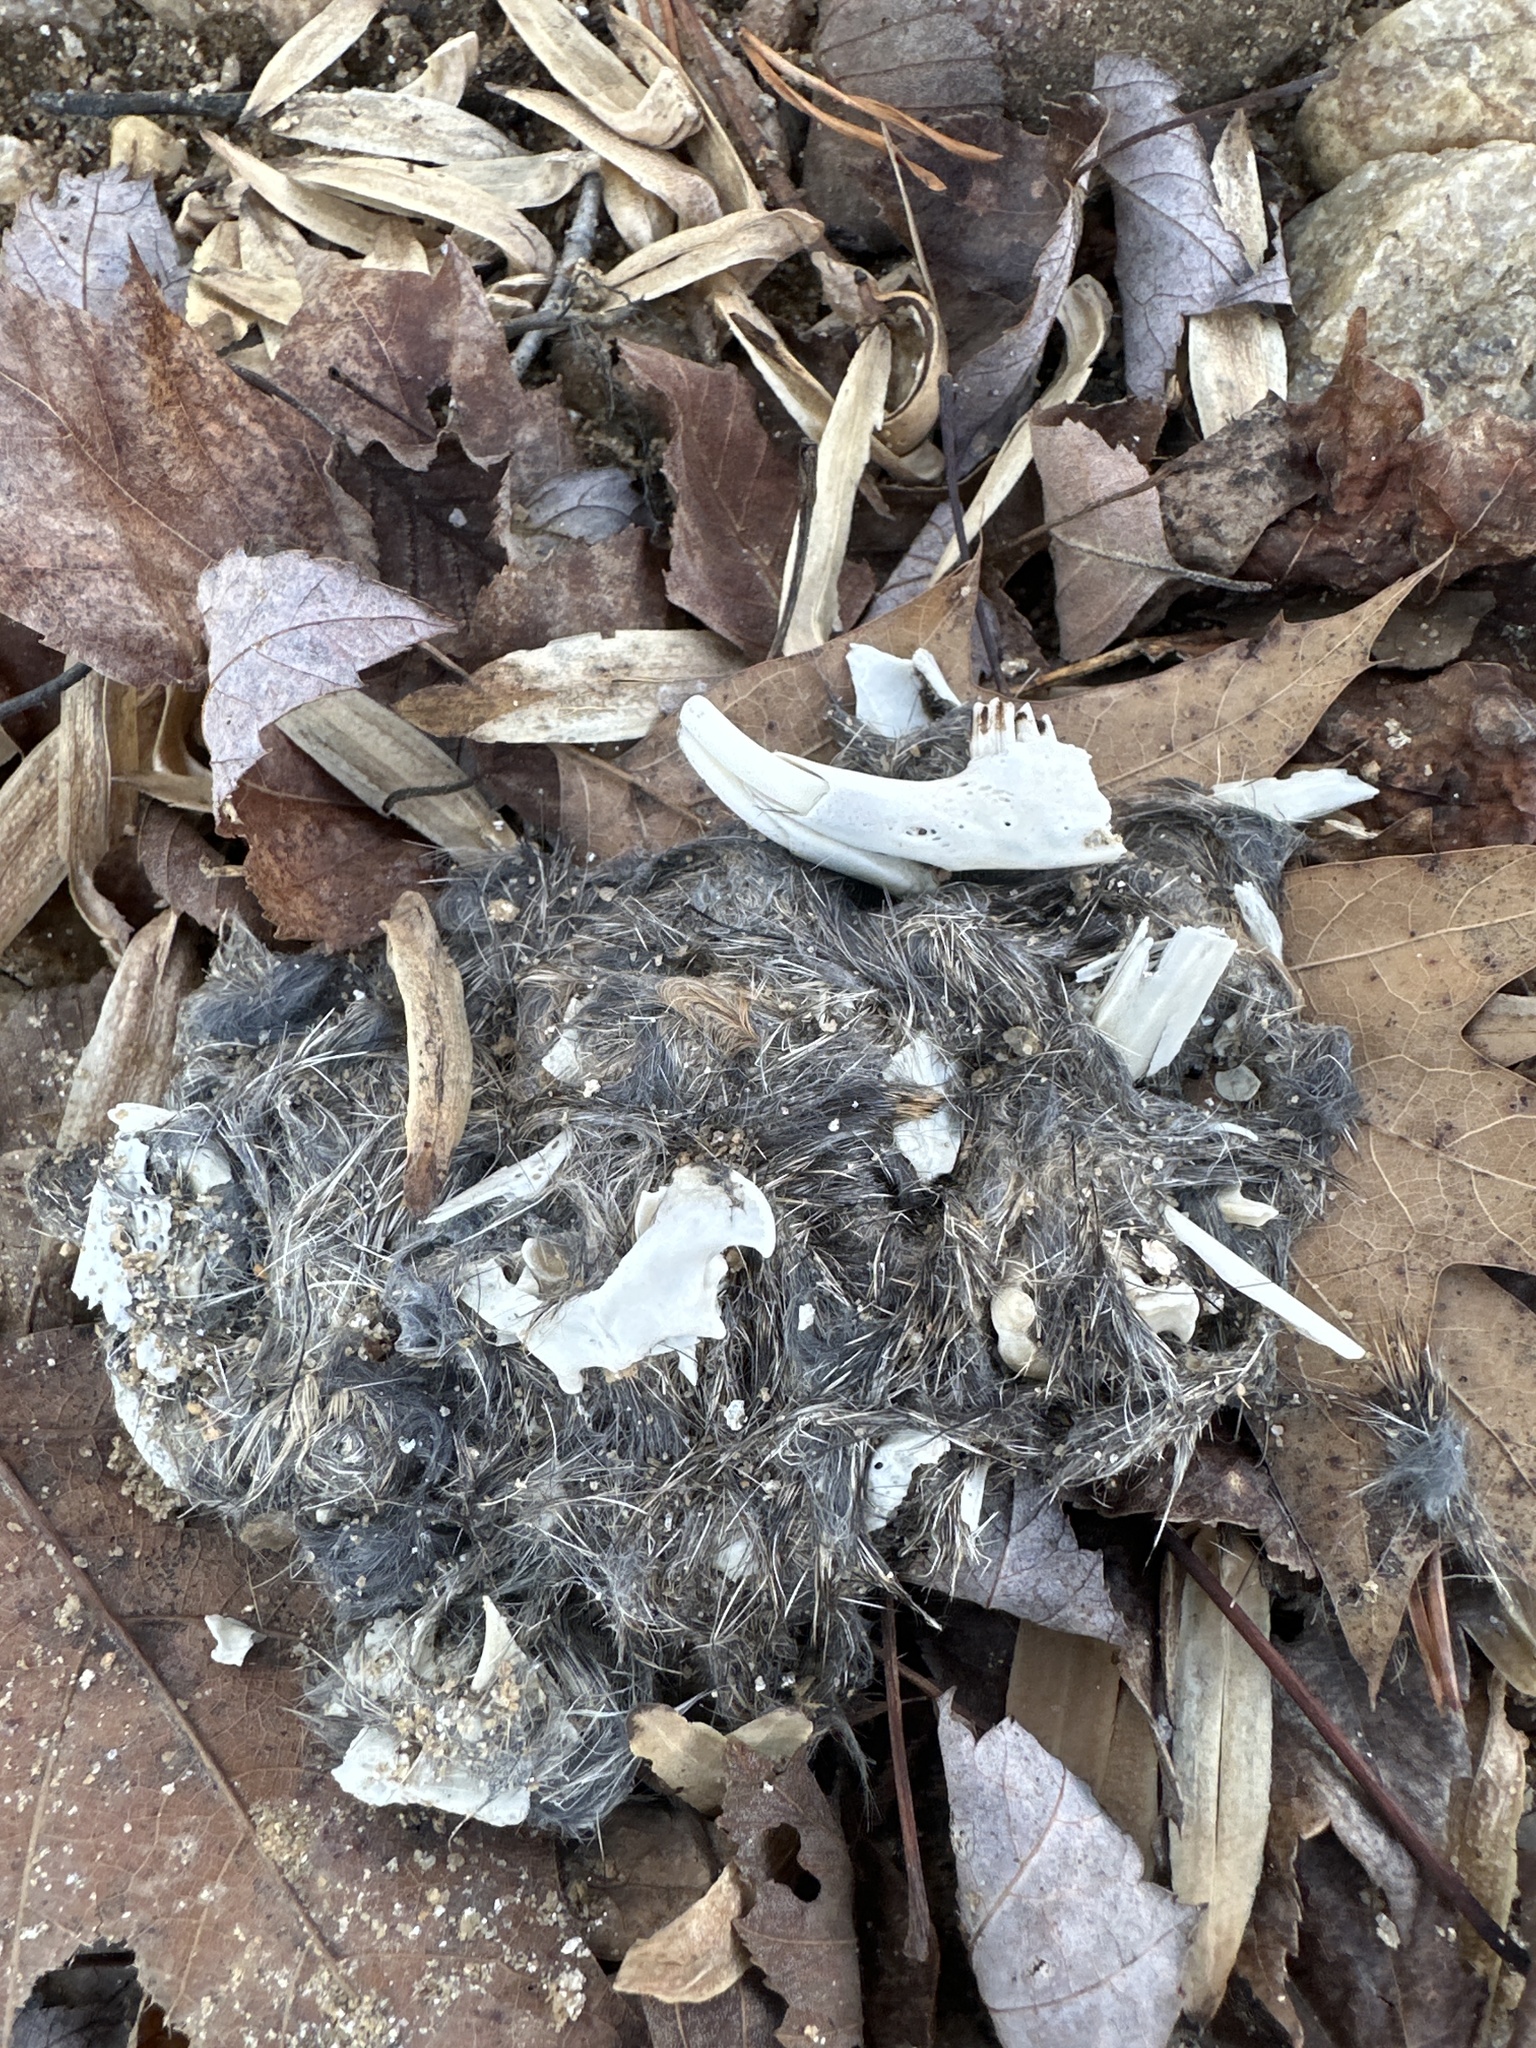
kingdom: Animalia
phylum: Chordata
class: Mammalia
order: Lagomorpha
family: Leporidae
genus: Sylvilagus
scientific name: Sylvilagus floridanus
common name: Eastern cottontail
